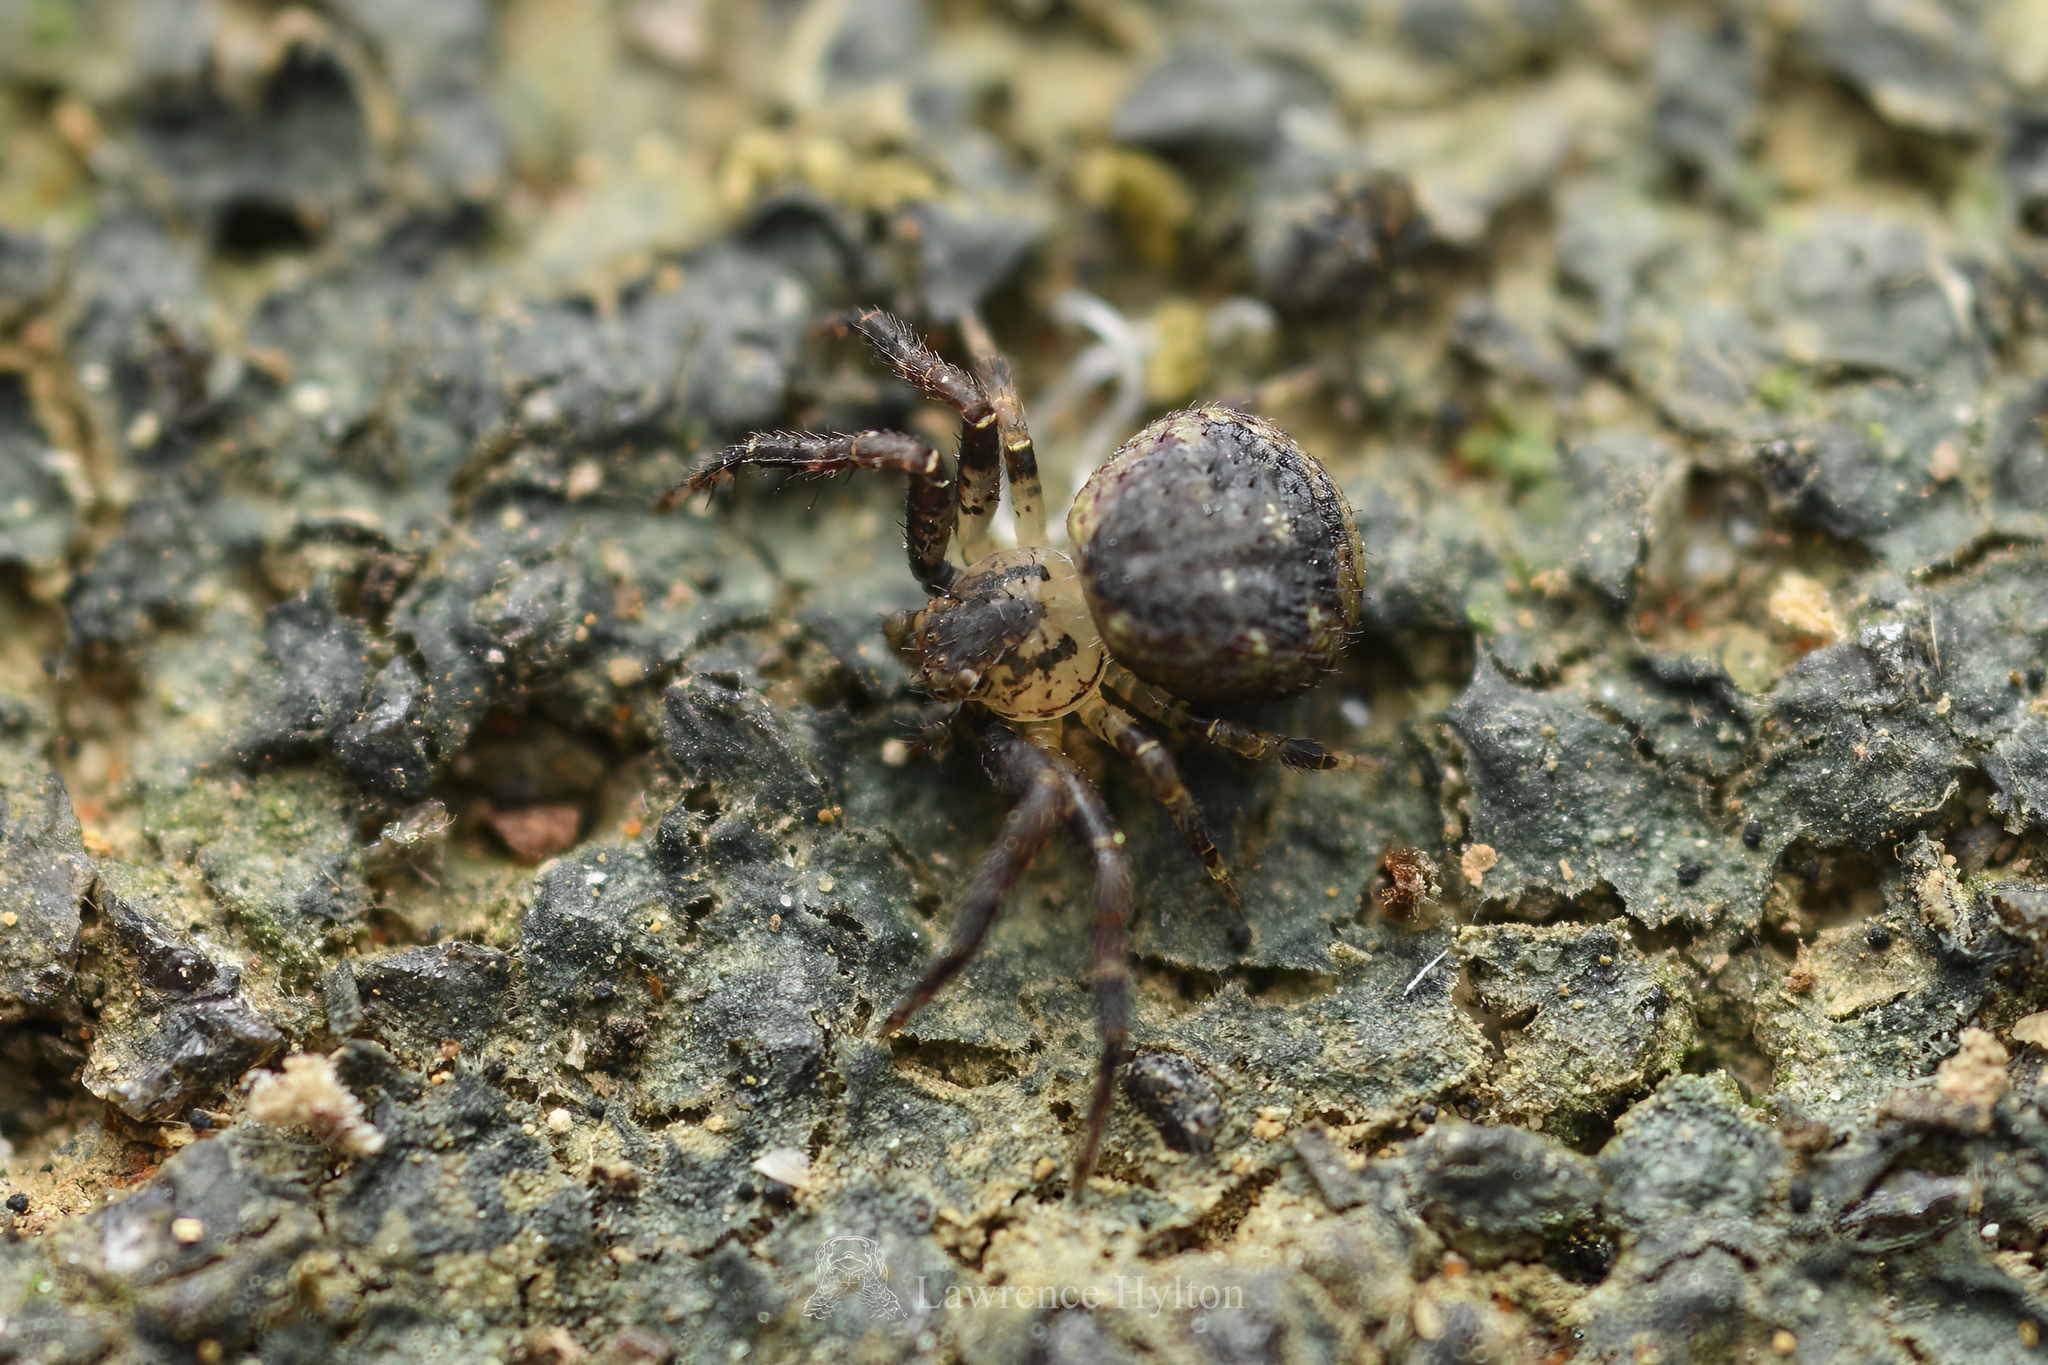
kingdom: Animalia
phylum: Arthropoda
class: Arachnida
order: Araneae
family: Thomisidae
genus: Pycnaxis
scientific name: Pycnaxis truciformis
